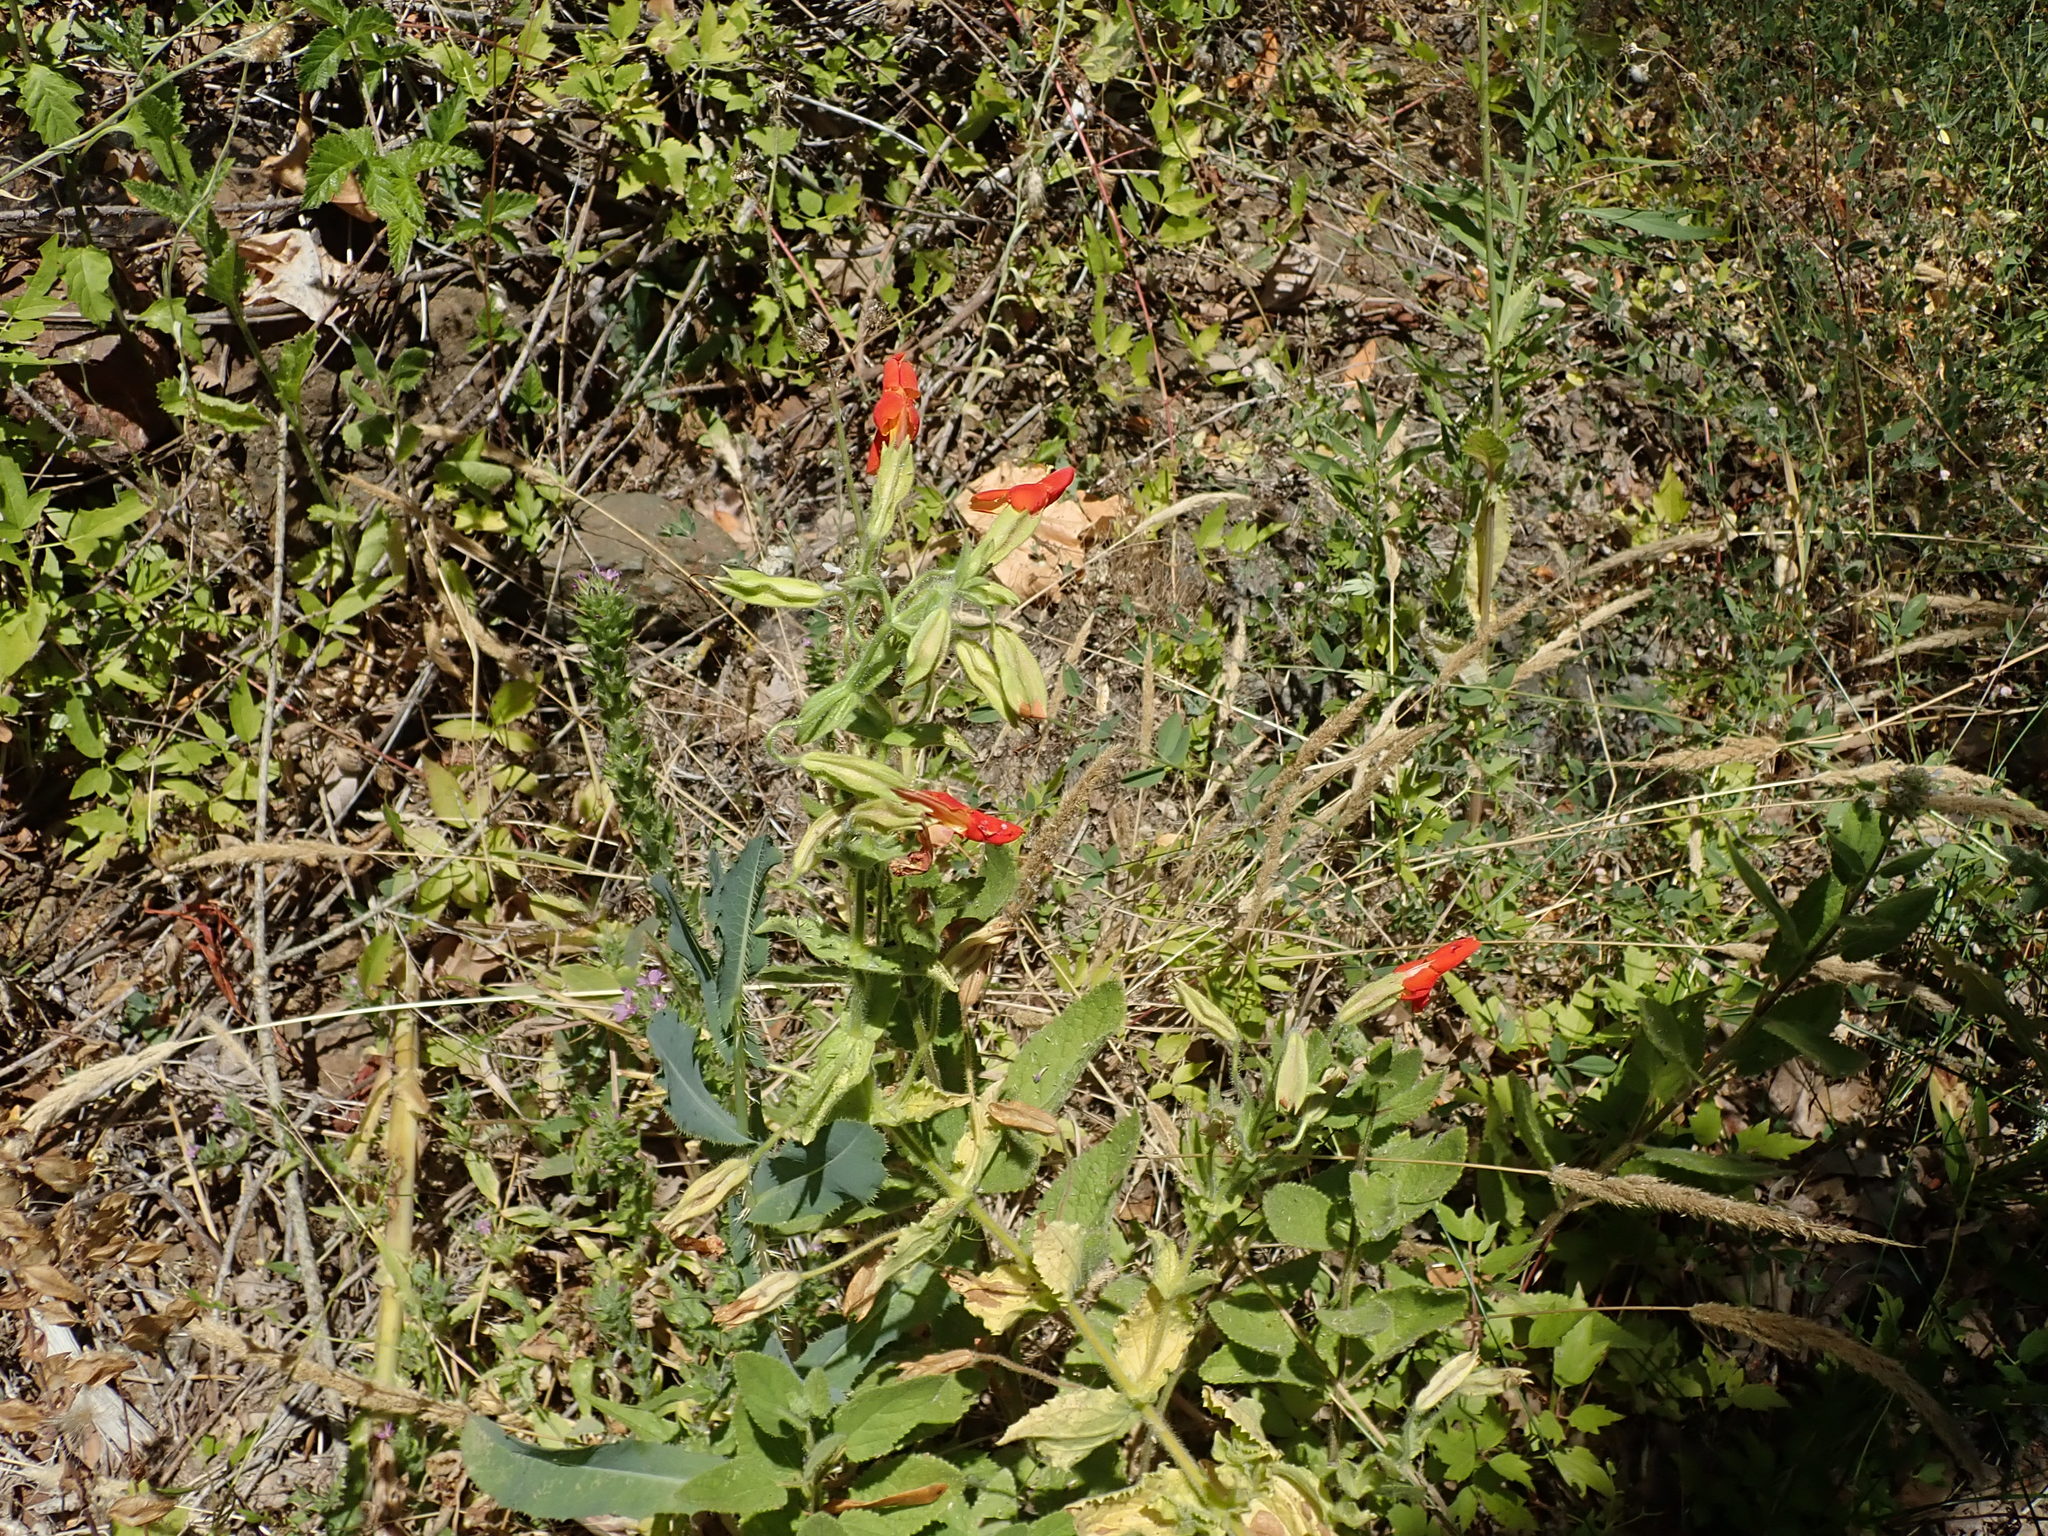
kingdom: Plantae
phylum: Tracheophyta
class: Magnoliopsida
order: Lamiales
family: Phrymaceae
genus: Erythranthe
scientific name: Erythranthe cardinalis
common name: Scarlet monkey-flower
